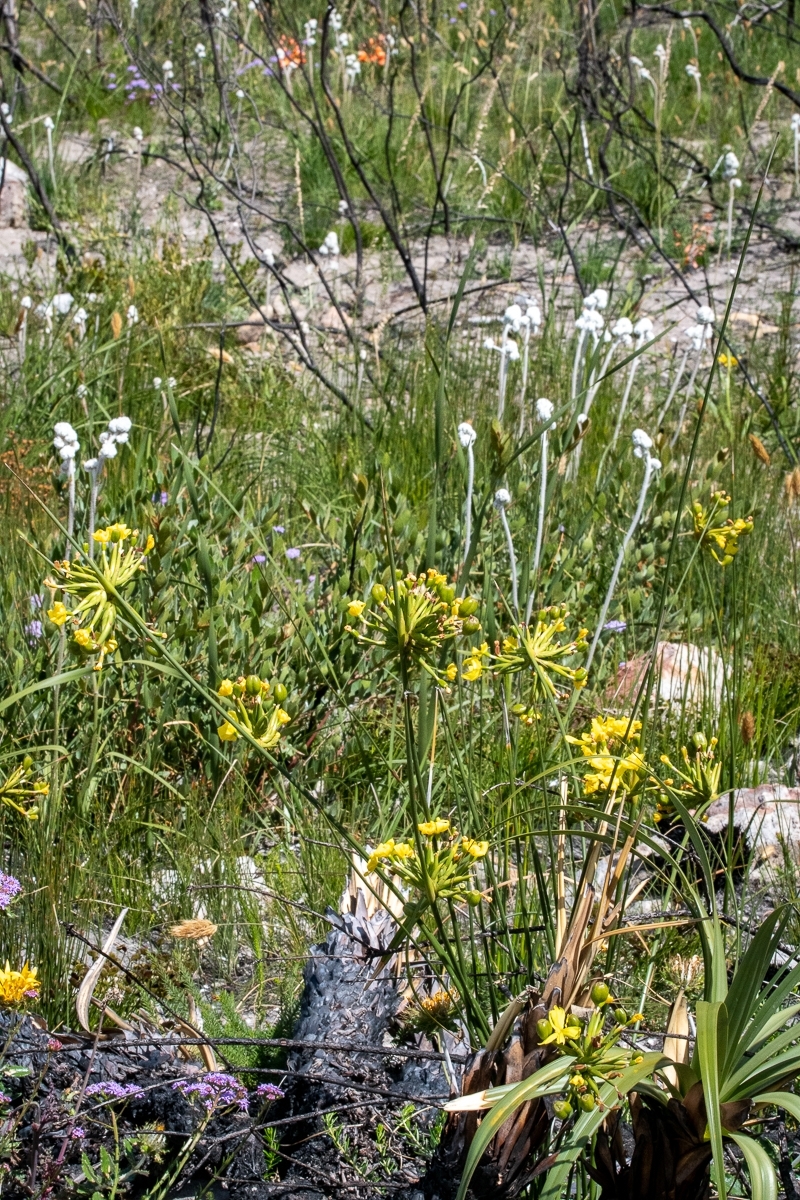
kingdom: Plantae
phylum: Tracheophyta
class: Liliopsida
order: Asparagales
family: Iridaceae
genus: Bobartia
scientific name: Bobartia indica
